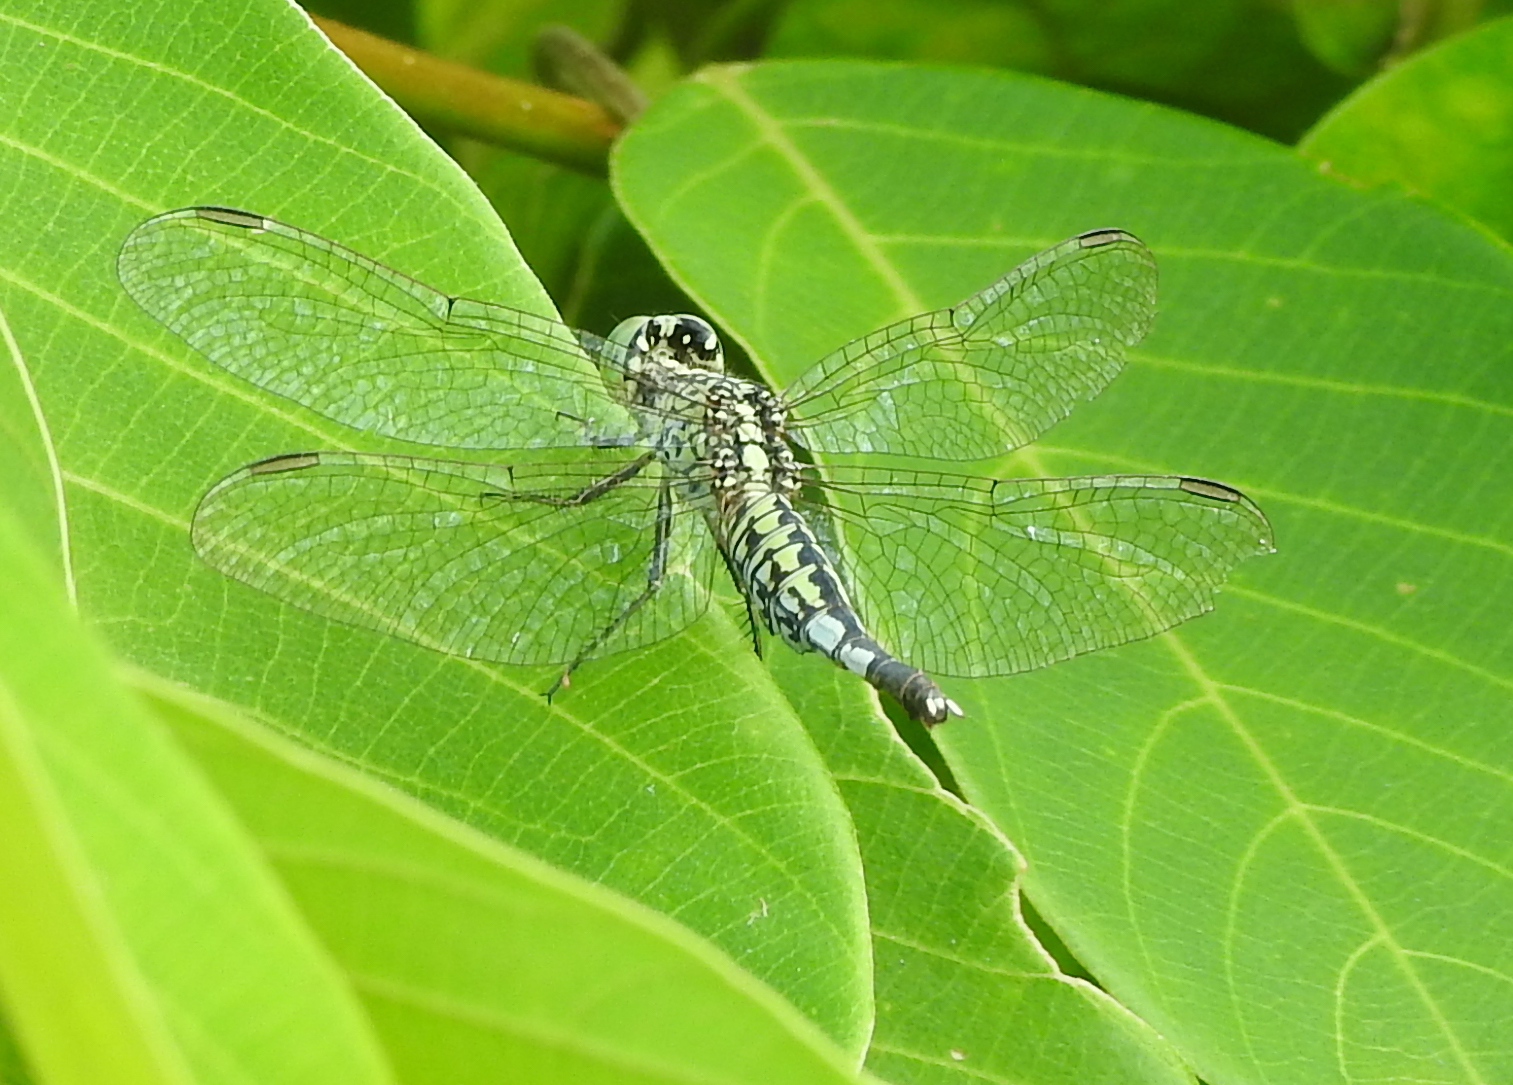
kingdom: Animalia
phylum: Arthropoda
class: Insecta
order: Odonata
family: Libellulidae
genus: Acisoma
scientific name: Acisoma panorpoides
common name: Asian pintail
